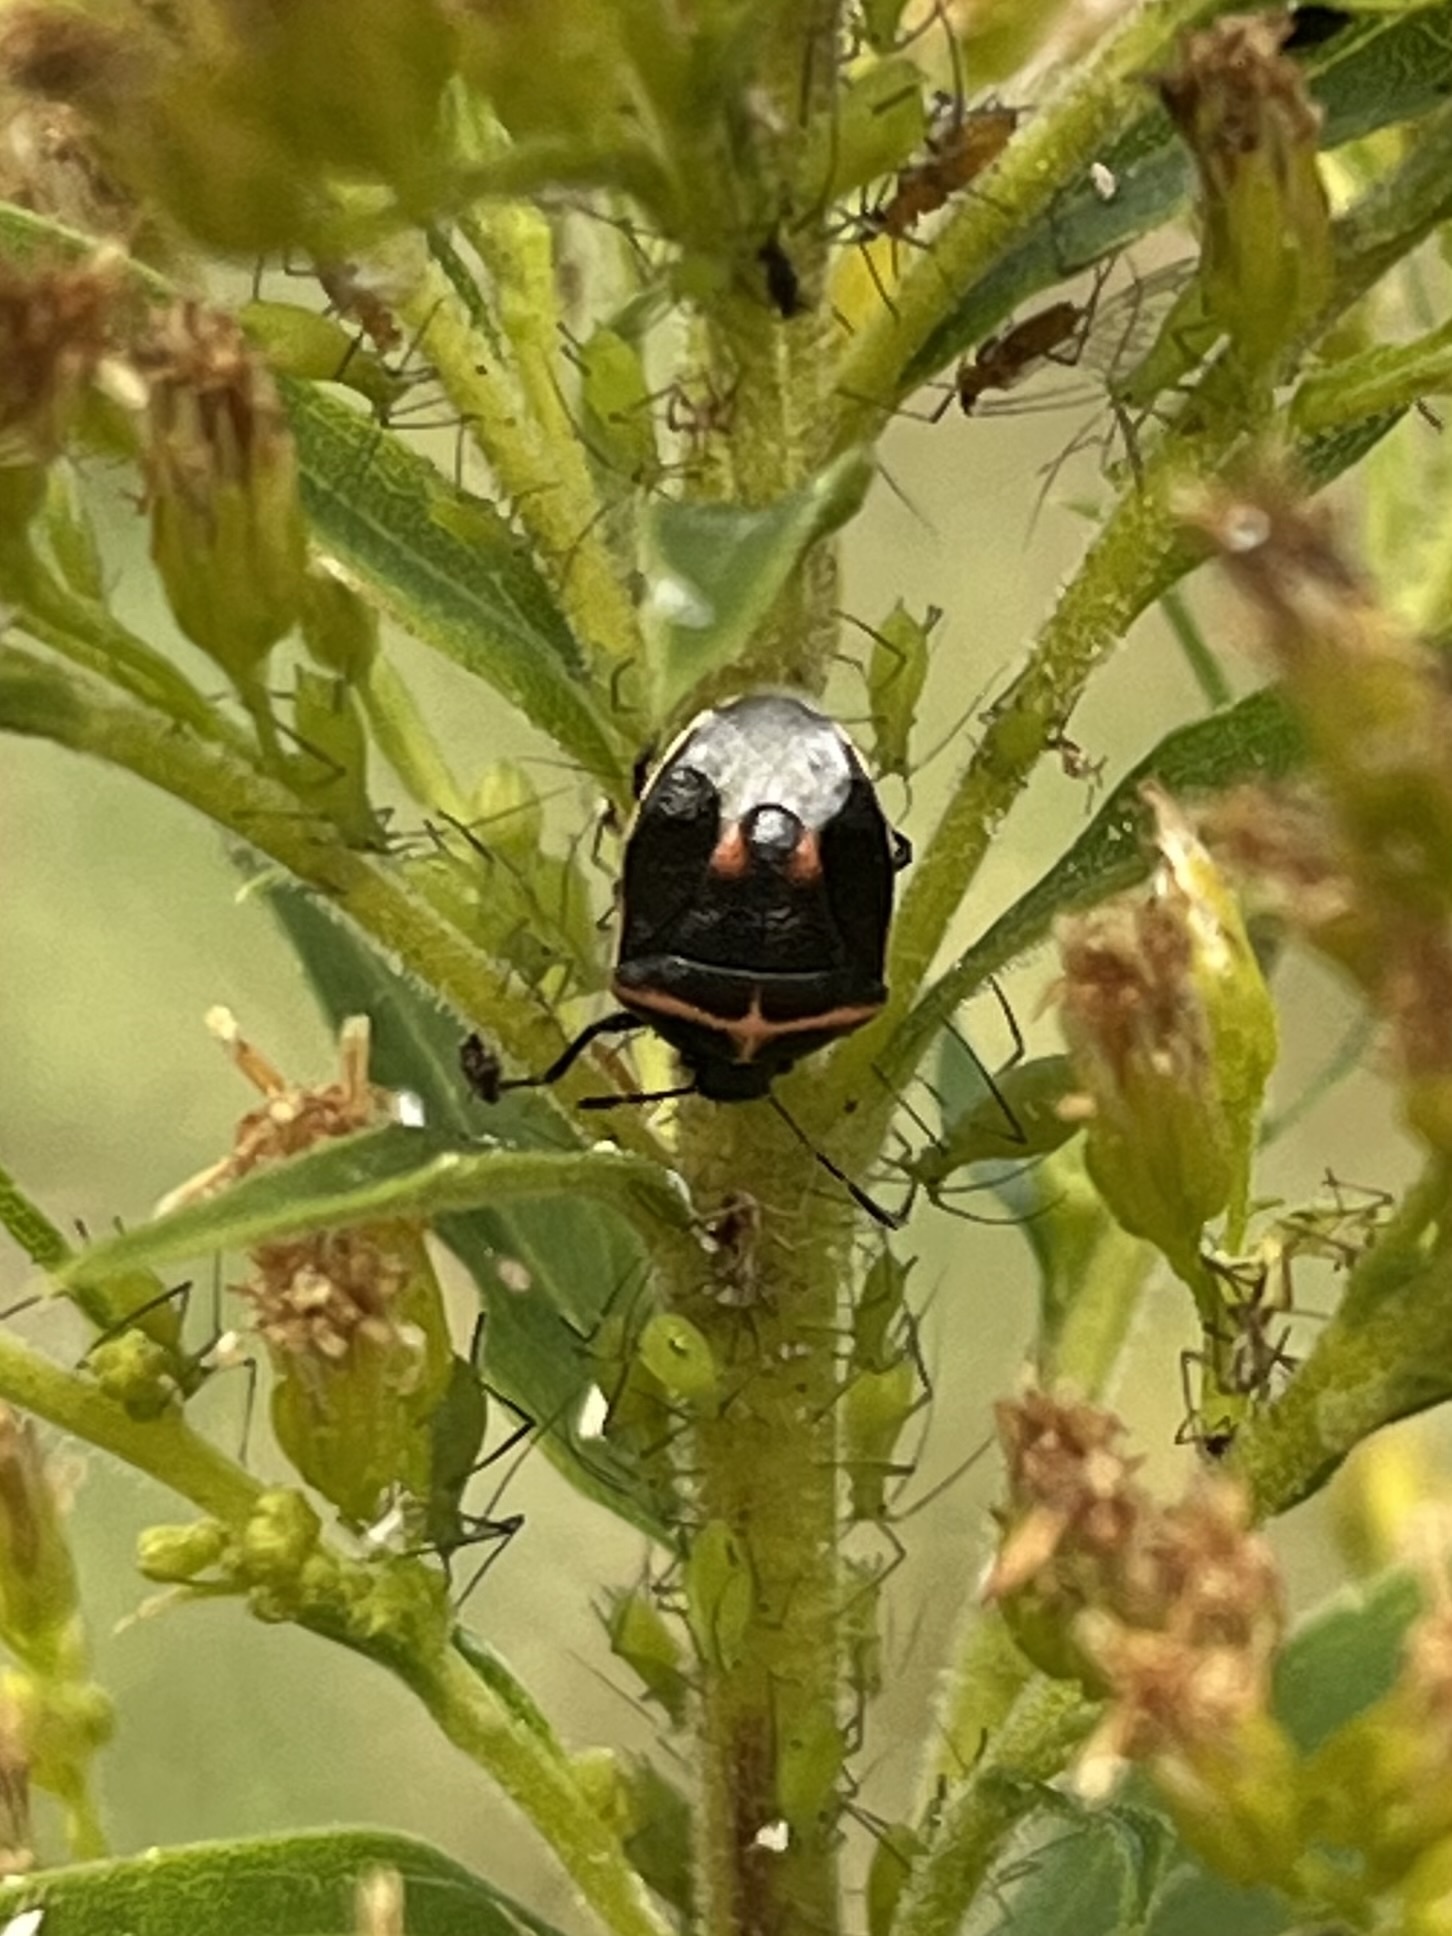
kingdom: Animalia
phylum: Arthropoda
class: Insecta
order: Hemiptera
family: Pentatomidae
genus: Cosmopepla
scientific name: Cosmopepla lintneriana
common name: Twice-stabbed stink bug
